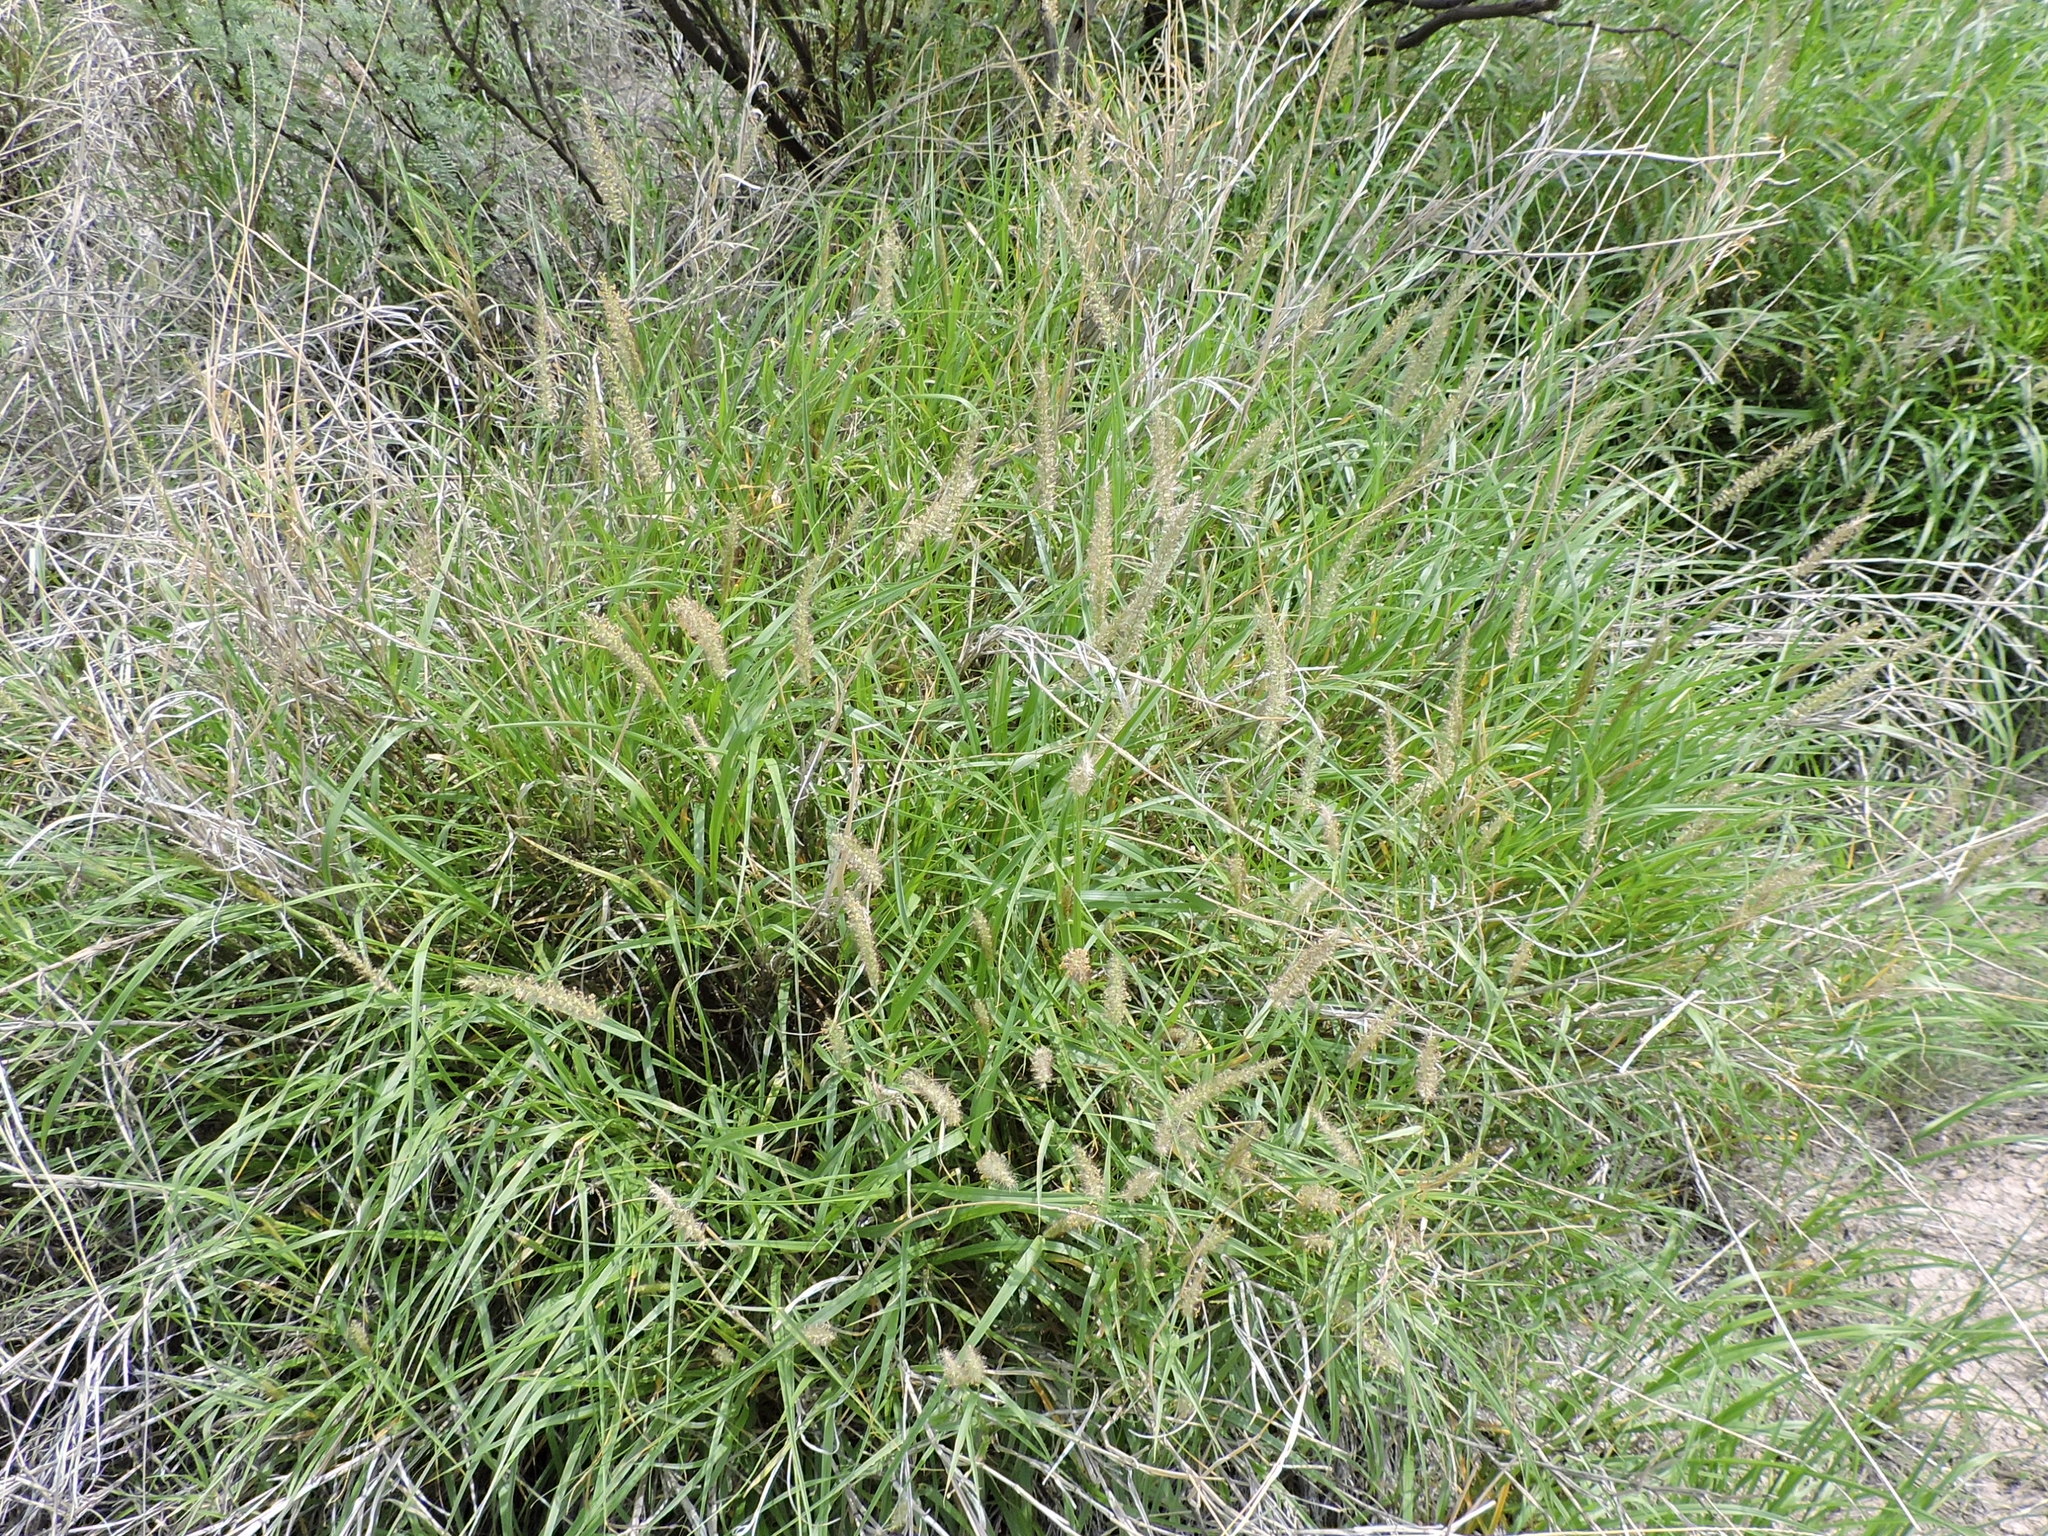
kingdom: Plantae
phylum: Tracheophyta
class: Liliopsida
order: Poales
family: Poaceae
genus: Cenchrus
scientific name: Cenchrus ciliaris
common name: Buffelgrass
